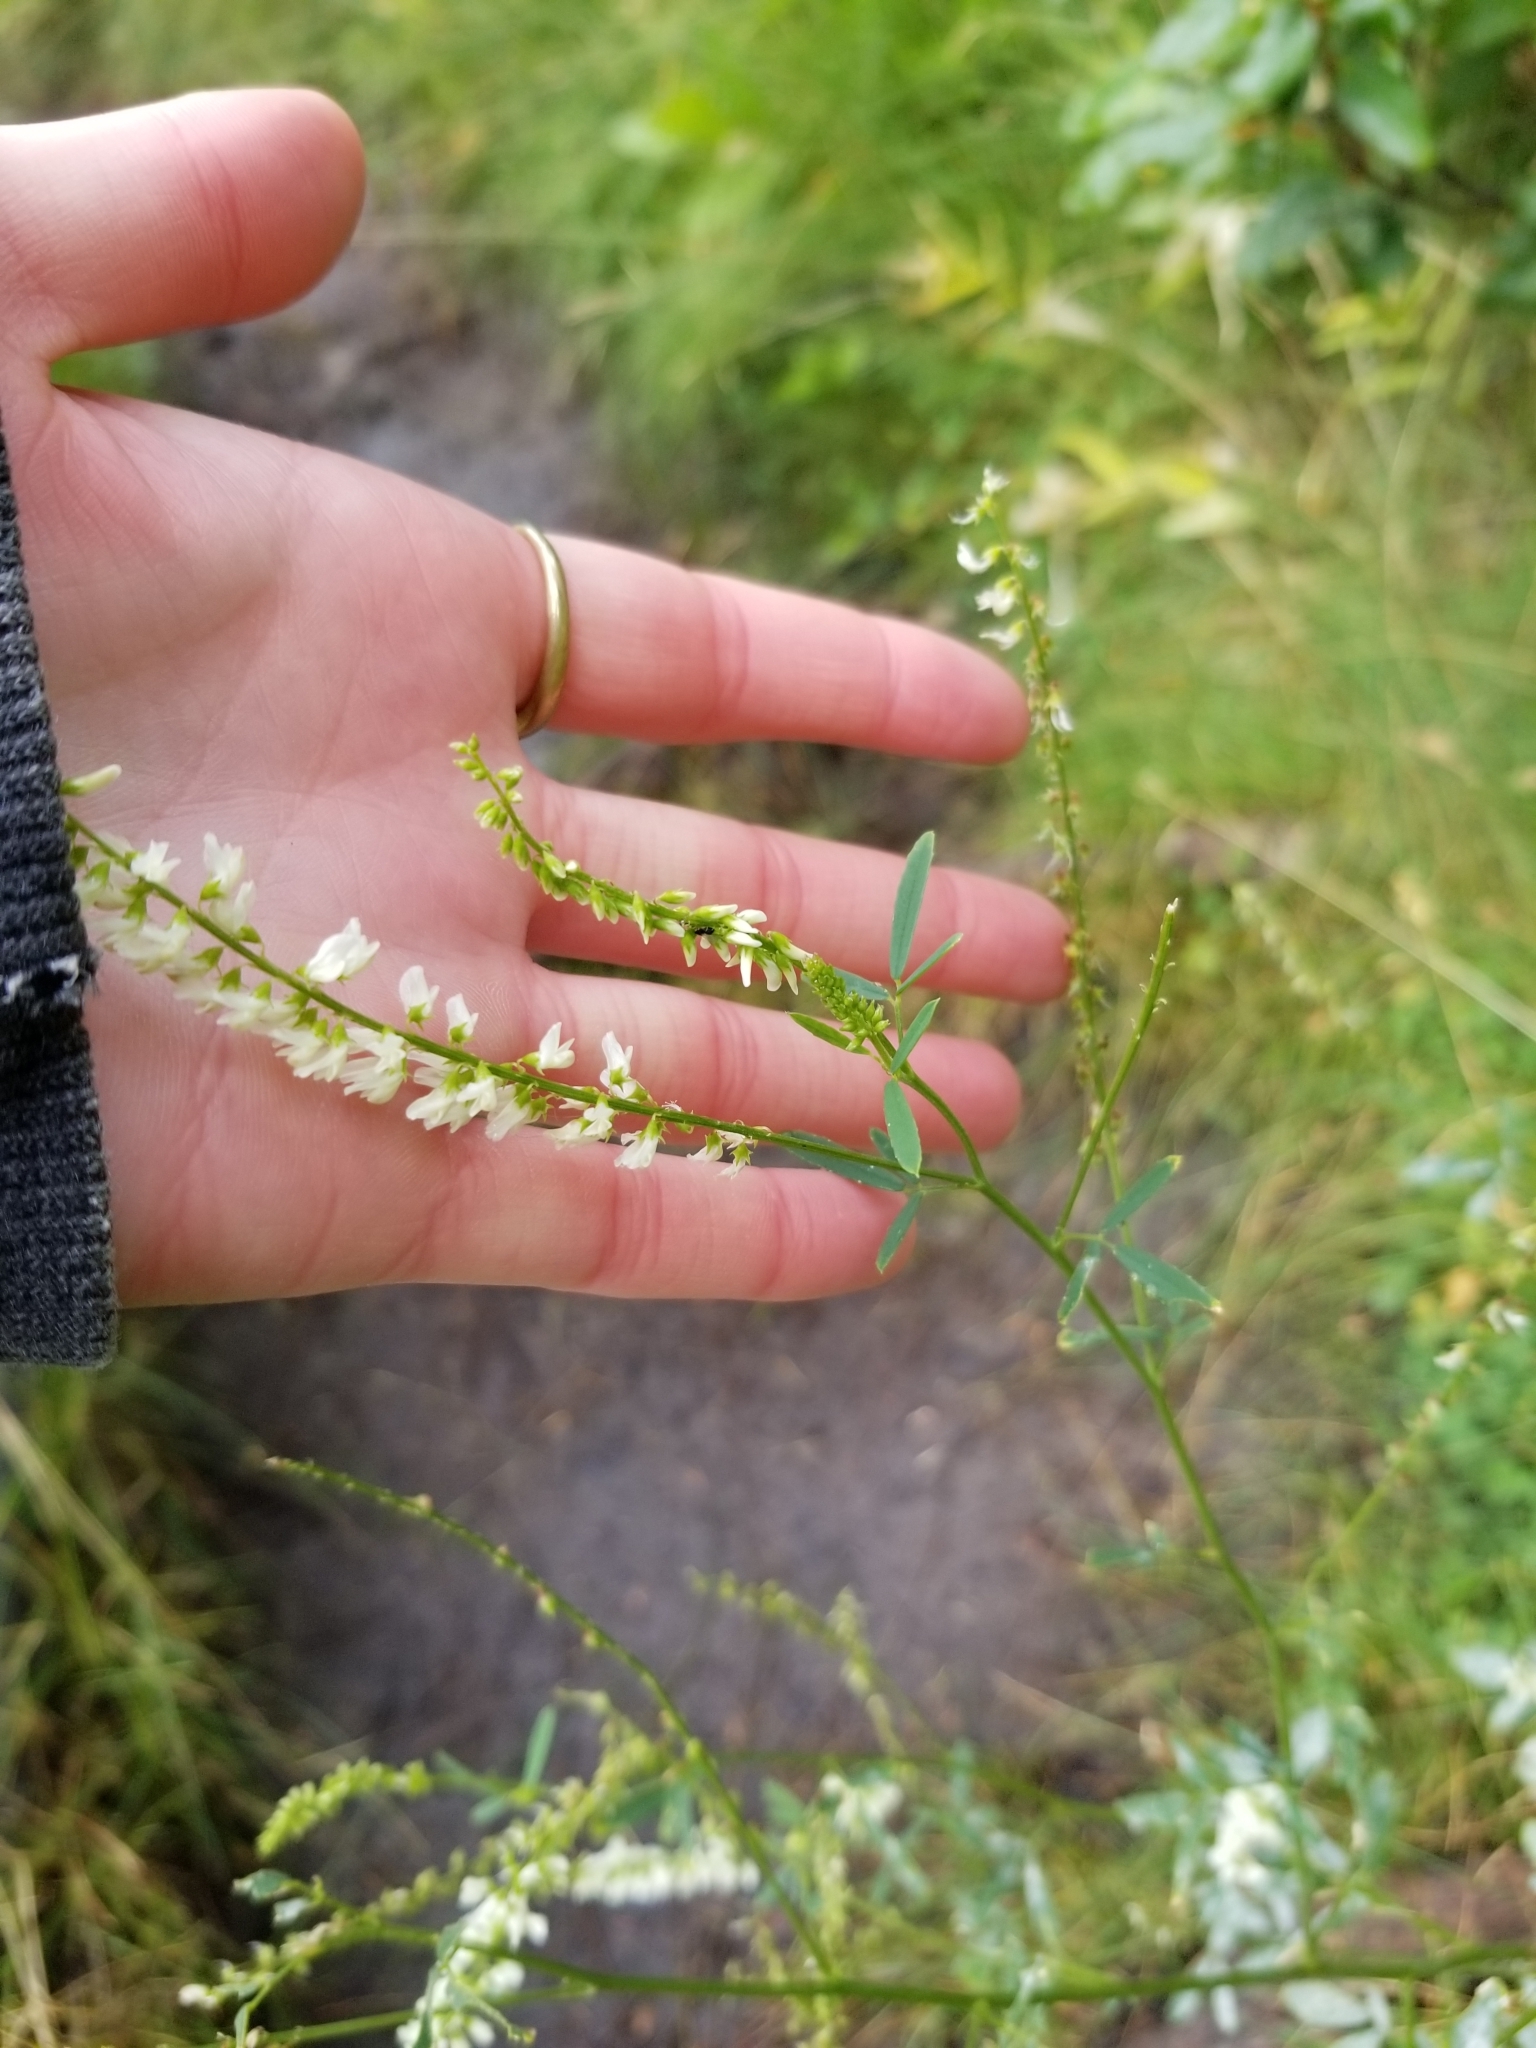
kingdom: Plantae
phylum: Tracheophyta
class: Magnoliopsida
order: Fabales
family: Fabaceae
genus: Melilotus
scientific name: Melilotus albus
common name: White melilot
